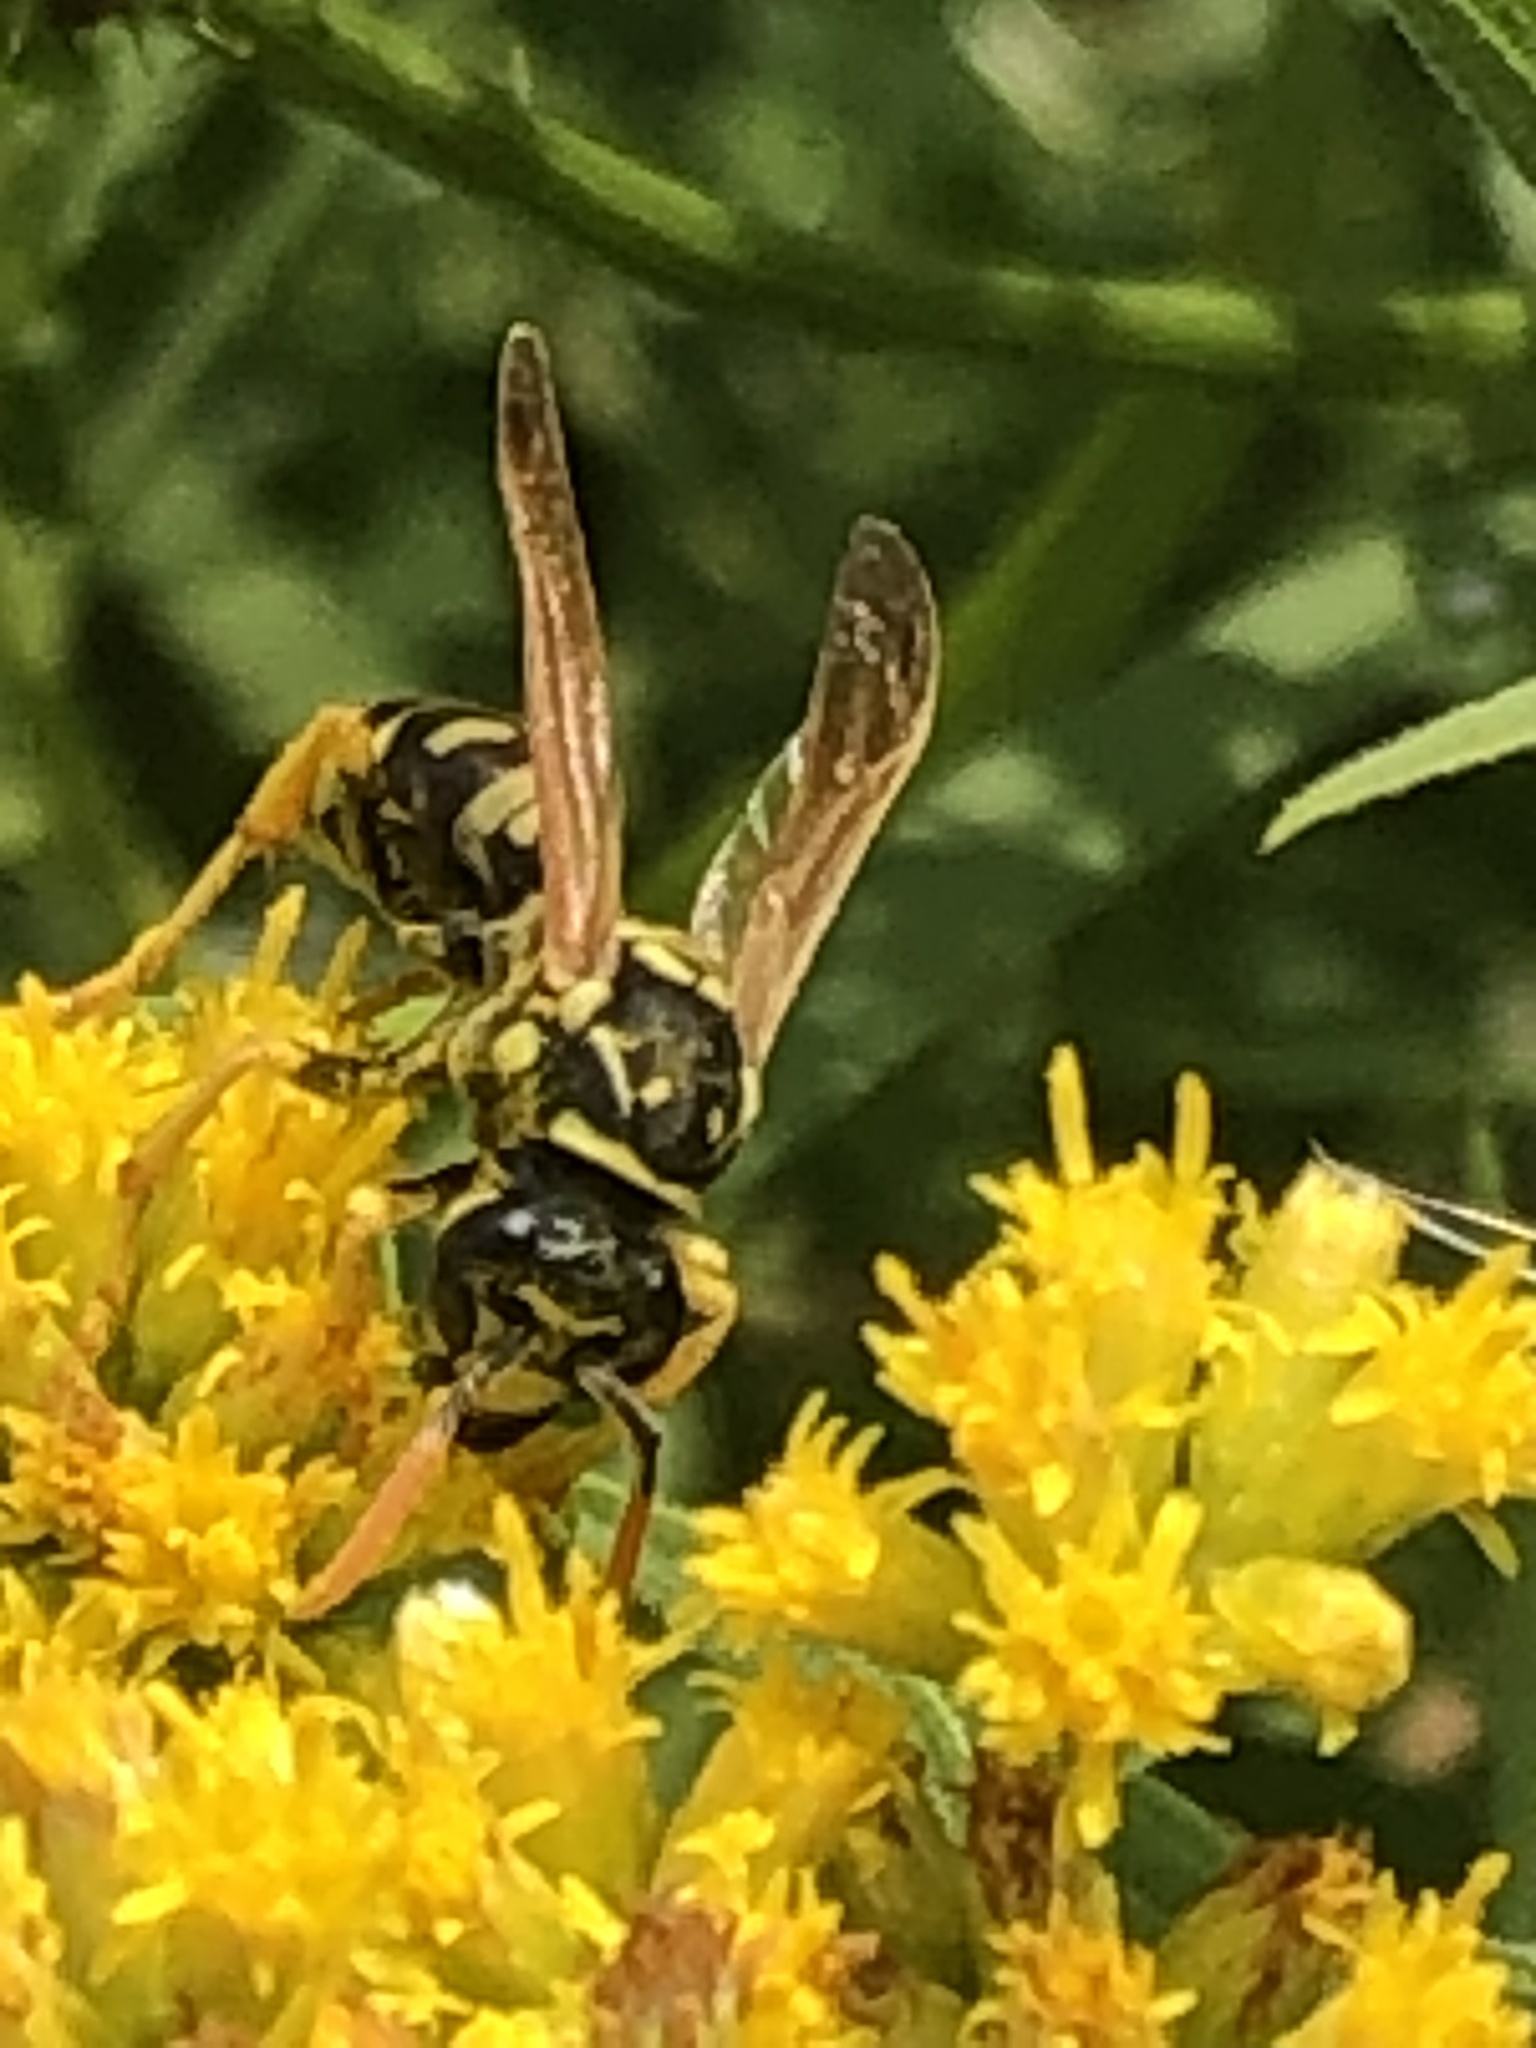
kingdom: Animalia
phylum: Arthropoda
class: Insecta
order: Hymenoptera
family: Eumenidae
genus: Polistes
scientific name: Polistes dominula
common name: Paper wasp
